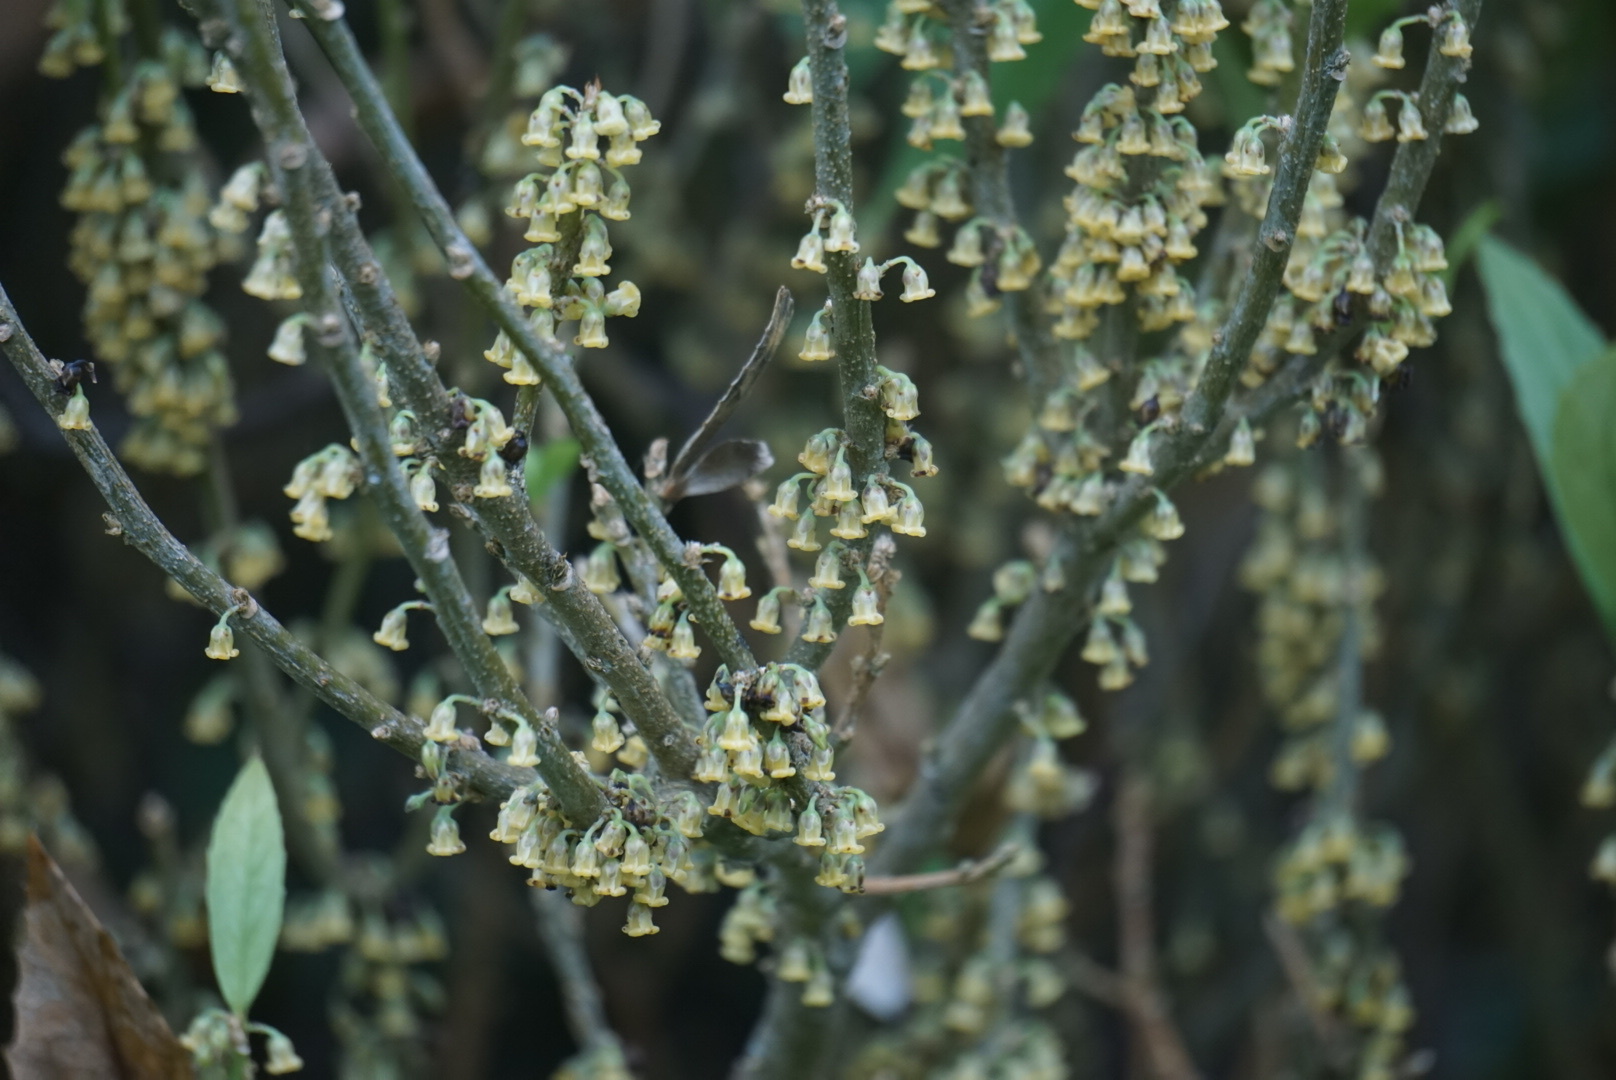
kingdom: Plantae
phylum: Tracheophyta
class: Magnoliopsida
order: Malpighiales
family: Violaceae
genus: Melicytus
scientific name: Melicytus chathamicus
